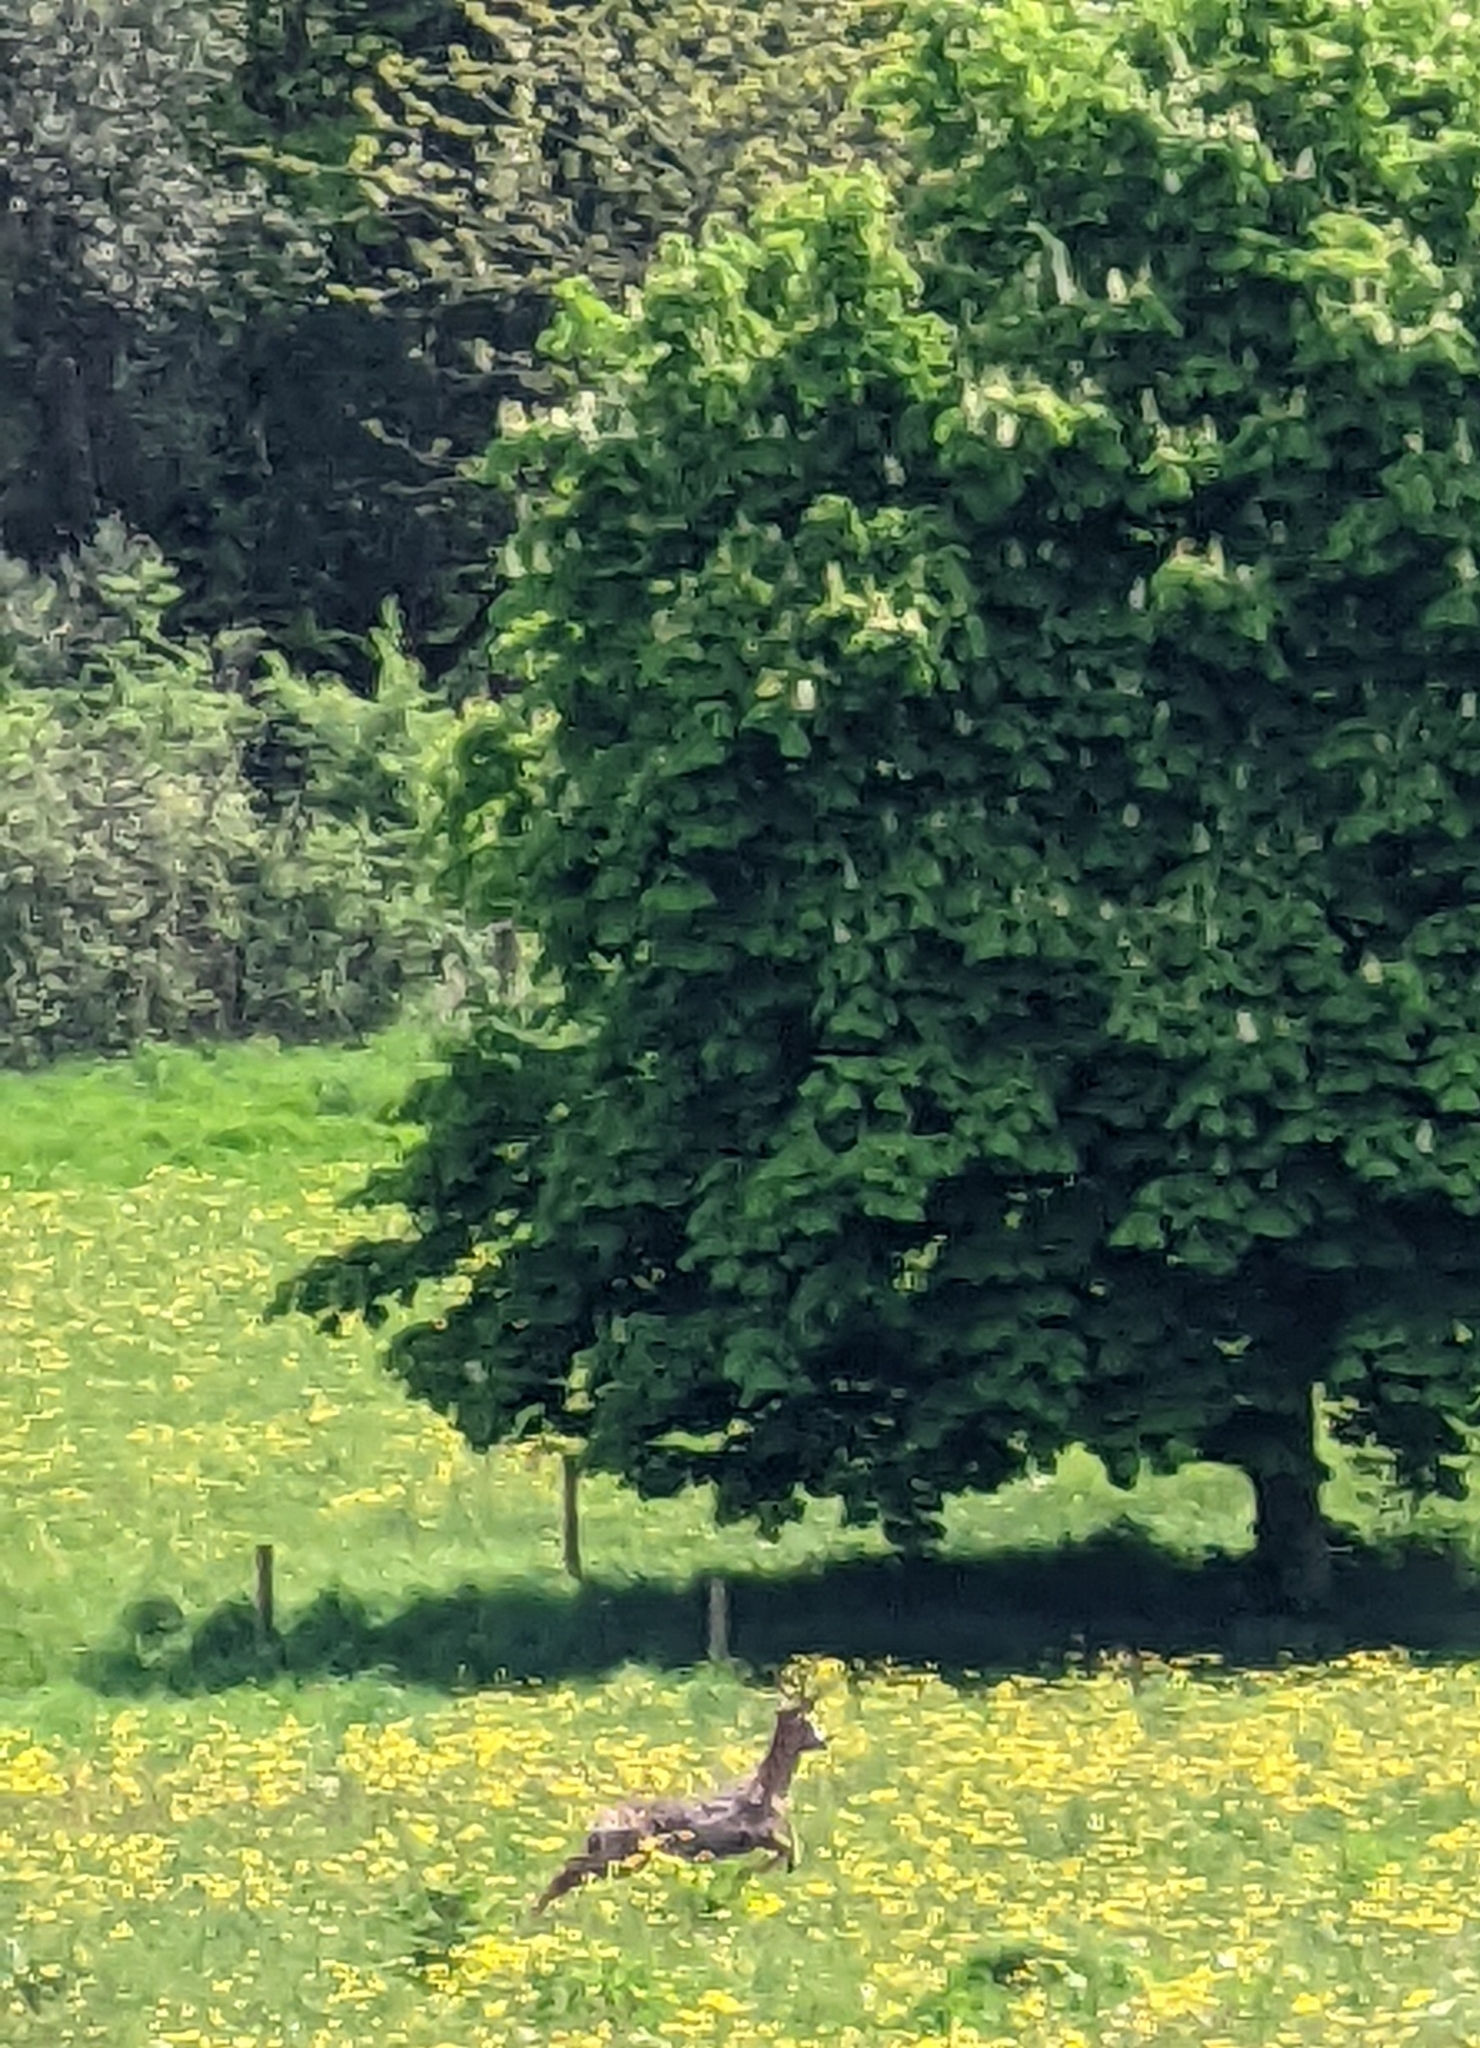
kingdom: Animalia
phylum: Chordata
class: Mammalia
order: Artiodactyla
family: Cervidae
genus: Capreolus
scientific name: Capreolus capreolus
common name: Western roe deer
